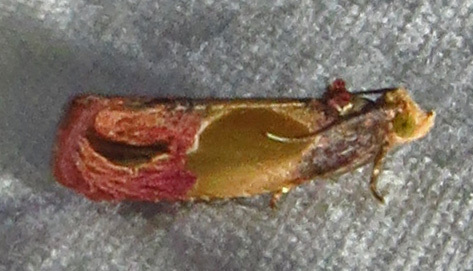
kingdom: Animalia
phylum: Arthropoda
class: Insecta
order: Lepidoptera
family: Tortricidae
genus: Eumarozia
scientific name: Eumarozia malachitana
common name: Sculptured moth
